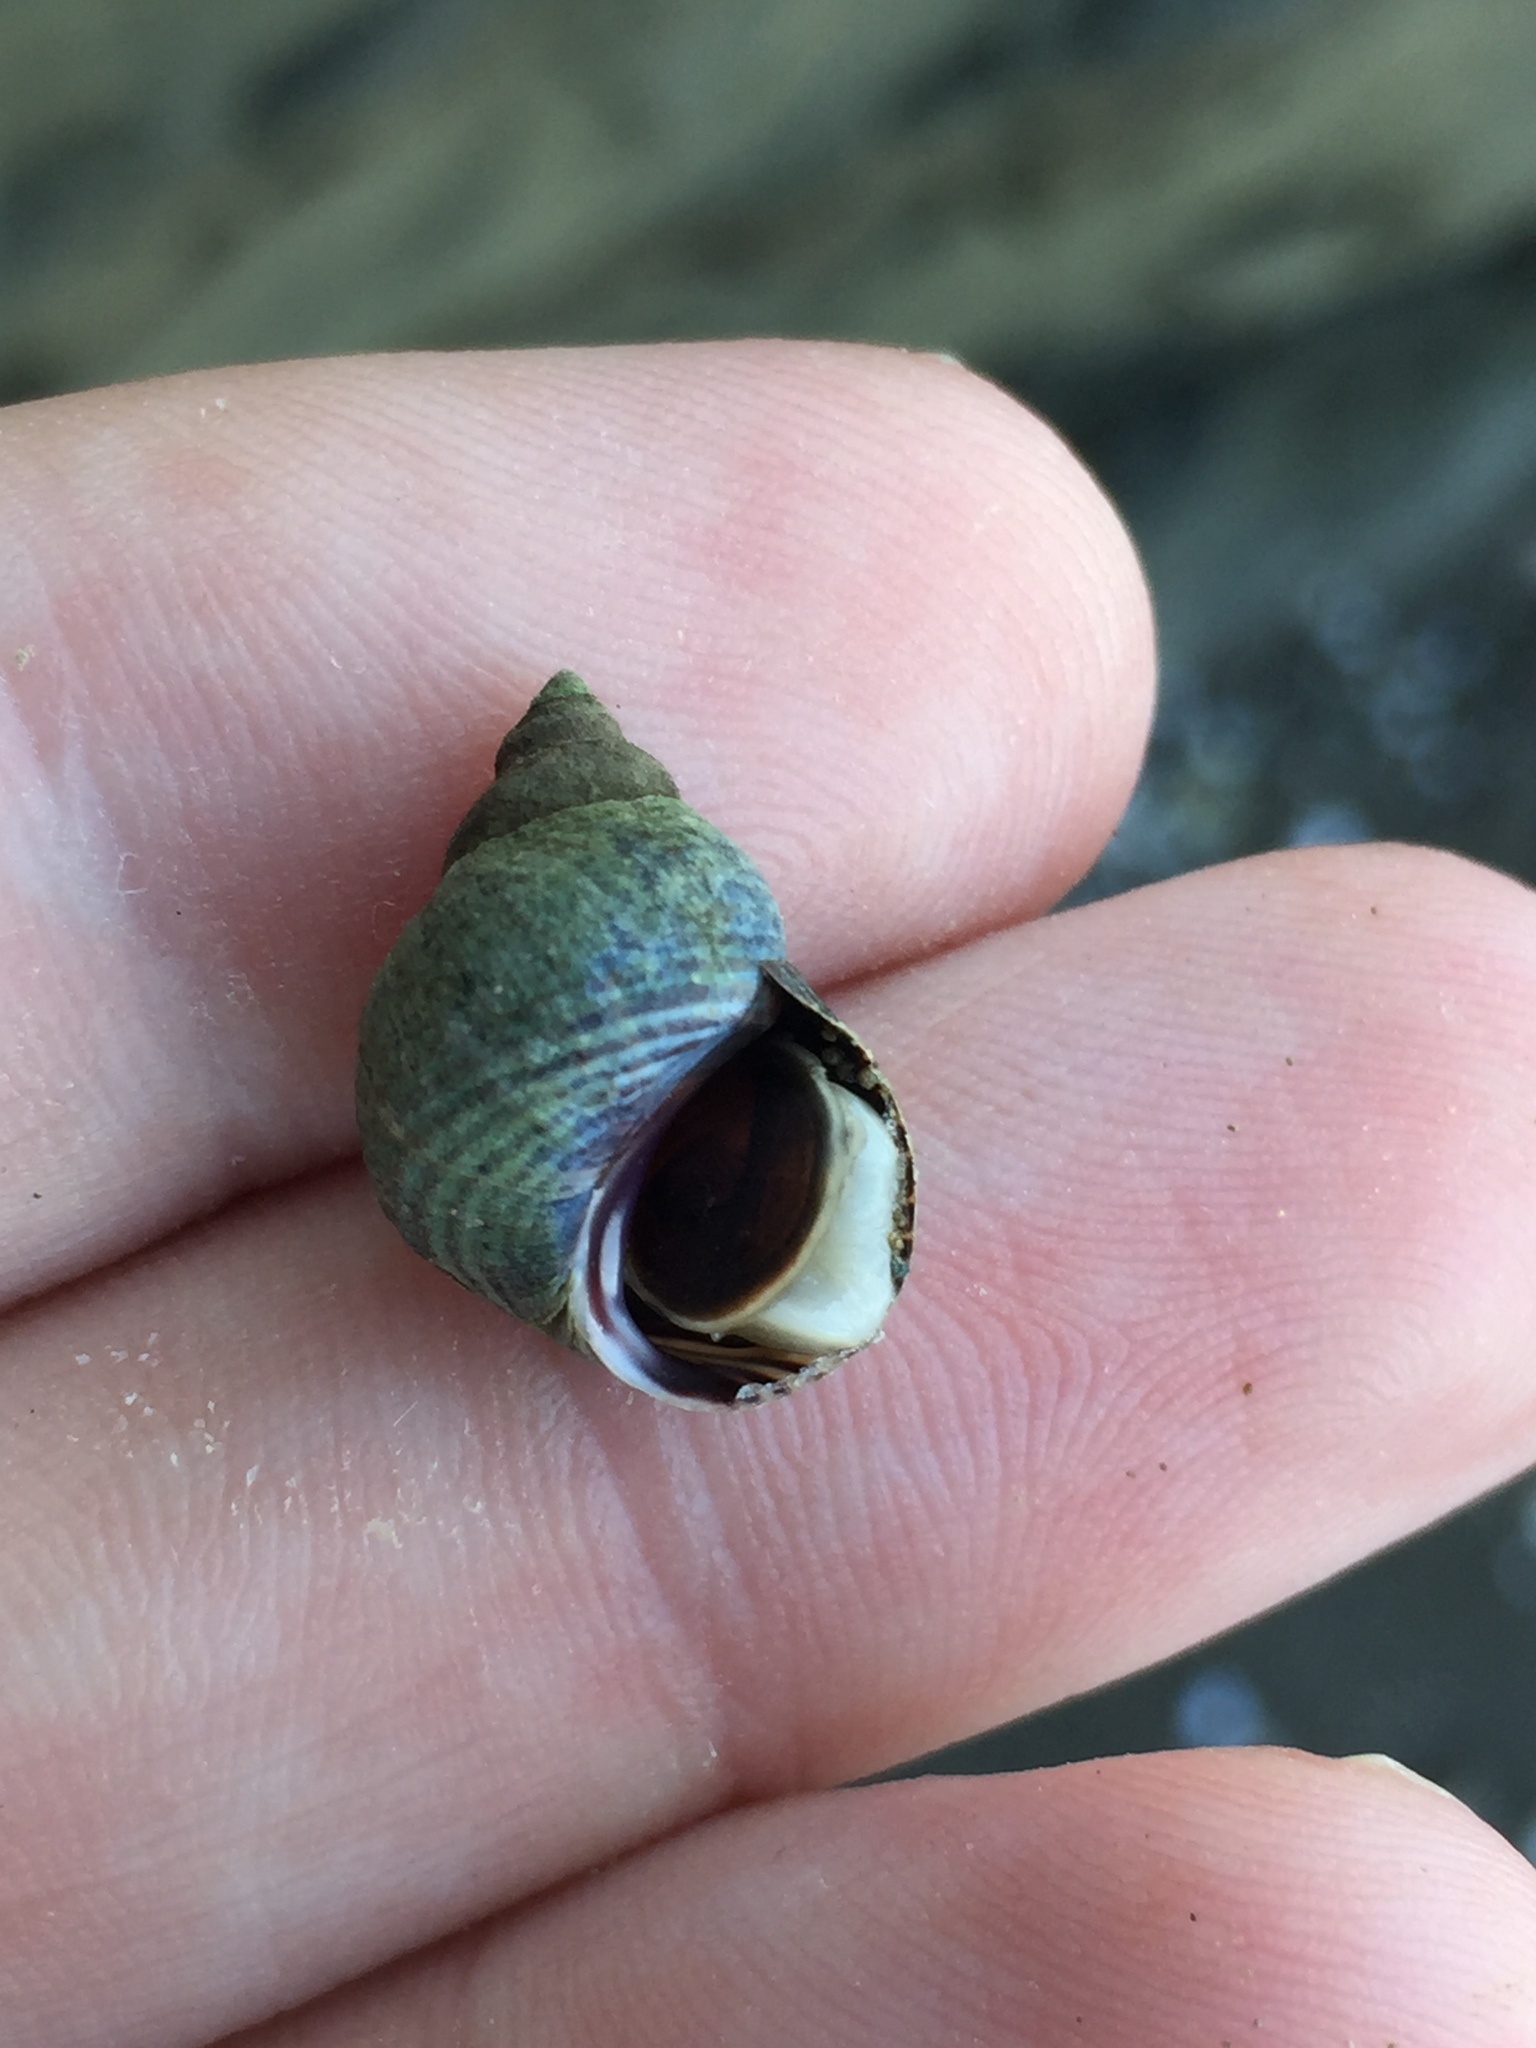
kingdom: Animalia
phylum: Mollusca
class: Gastropoda
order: Littorinimorpha
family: Littorinidae
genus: Austrolittorina
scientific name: Austrolittorina cincta
